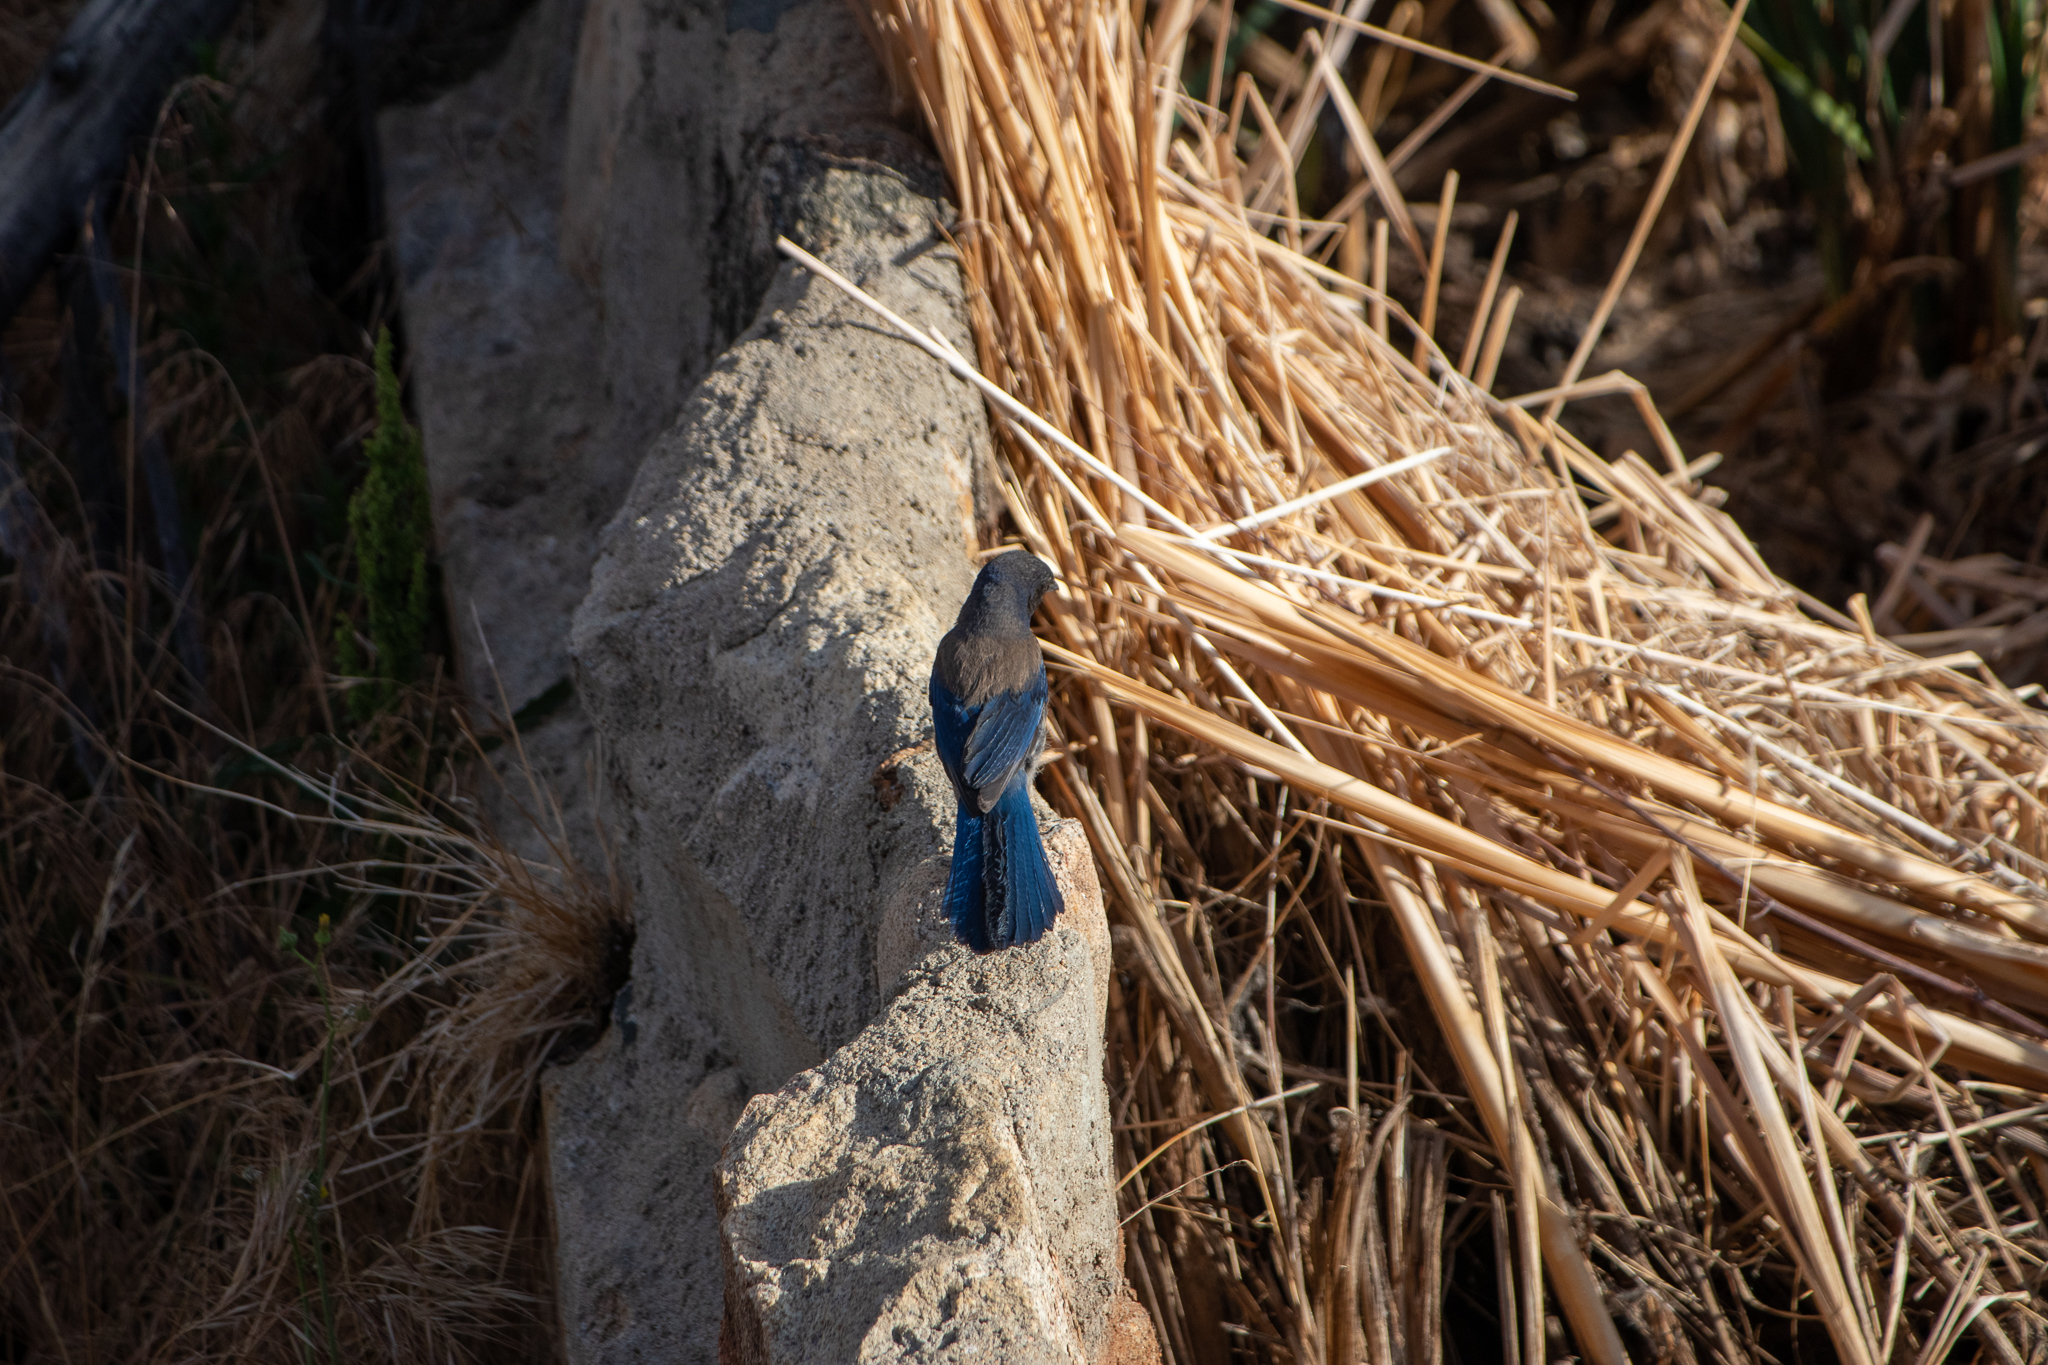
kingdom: Animalia
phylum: Chordata
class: Aves
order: Passeriformes
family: Corvidae
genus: Aphelocoma
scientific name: Aphelocoma californica
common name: California scrub-jay
